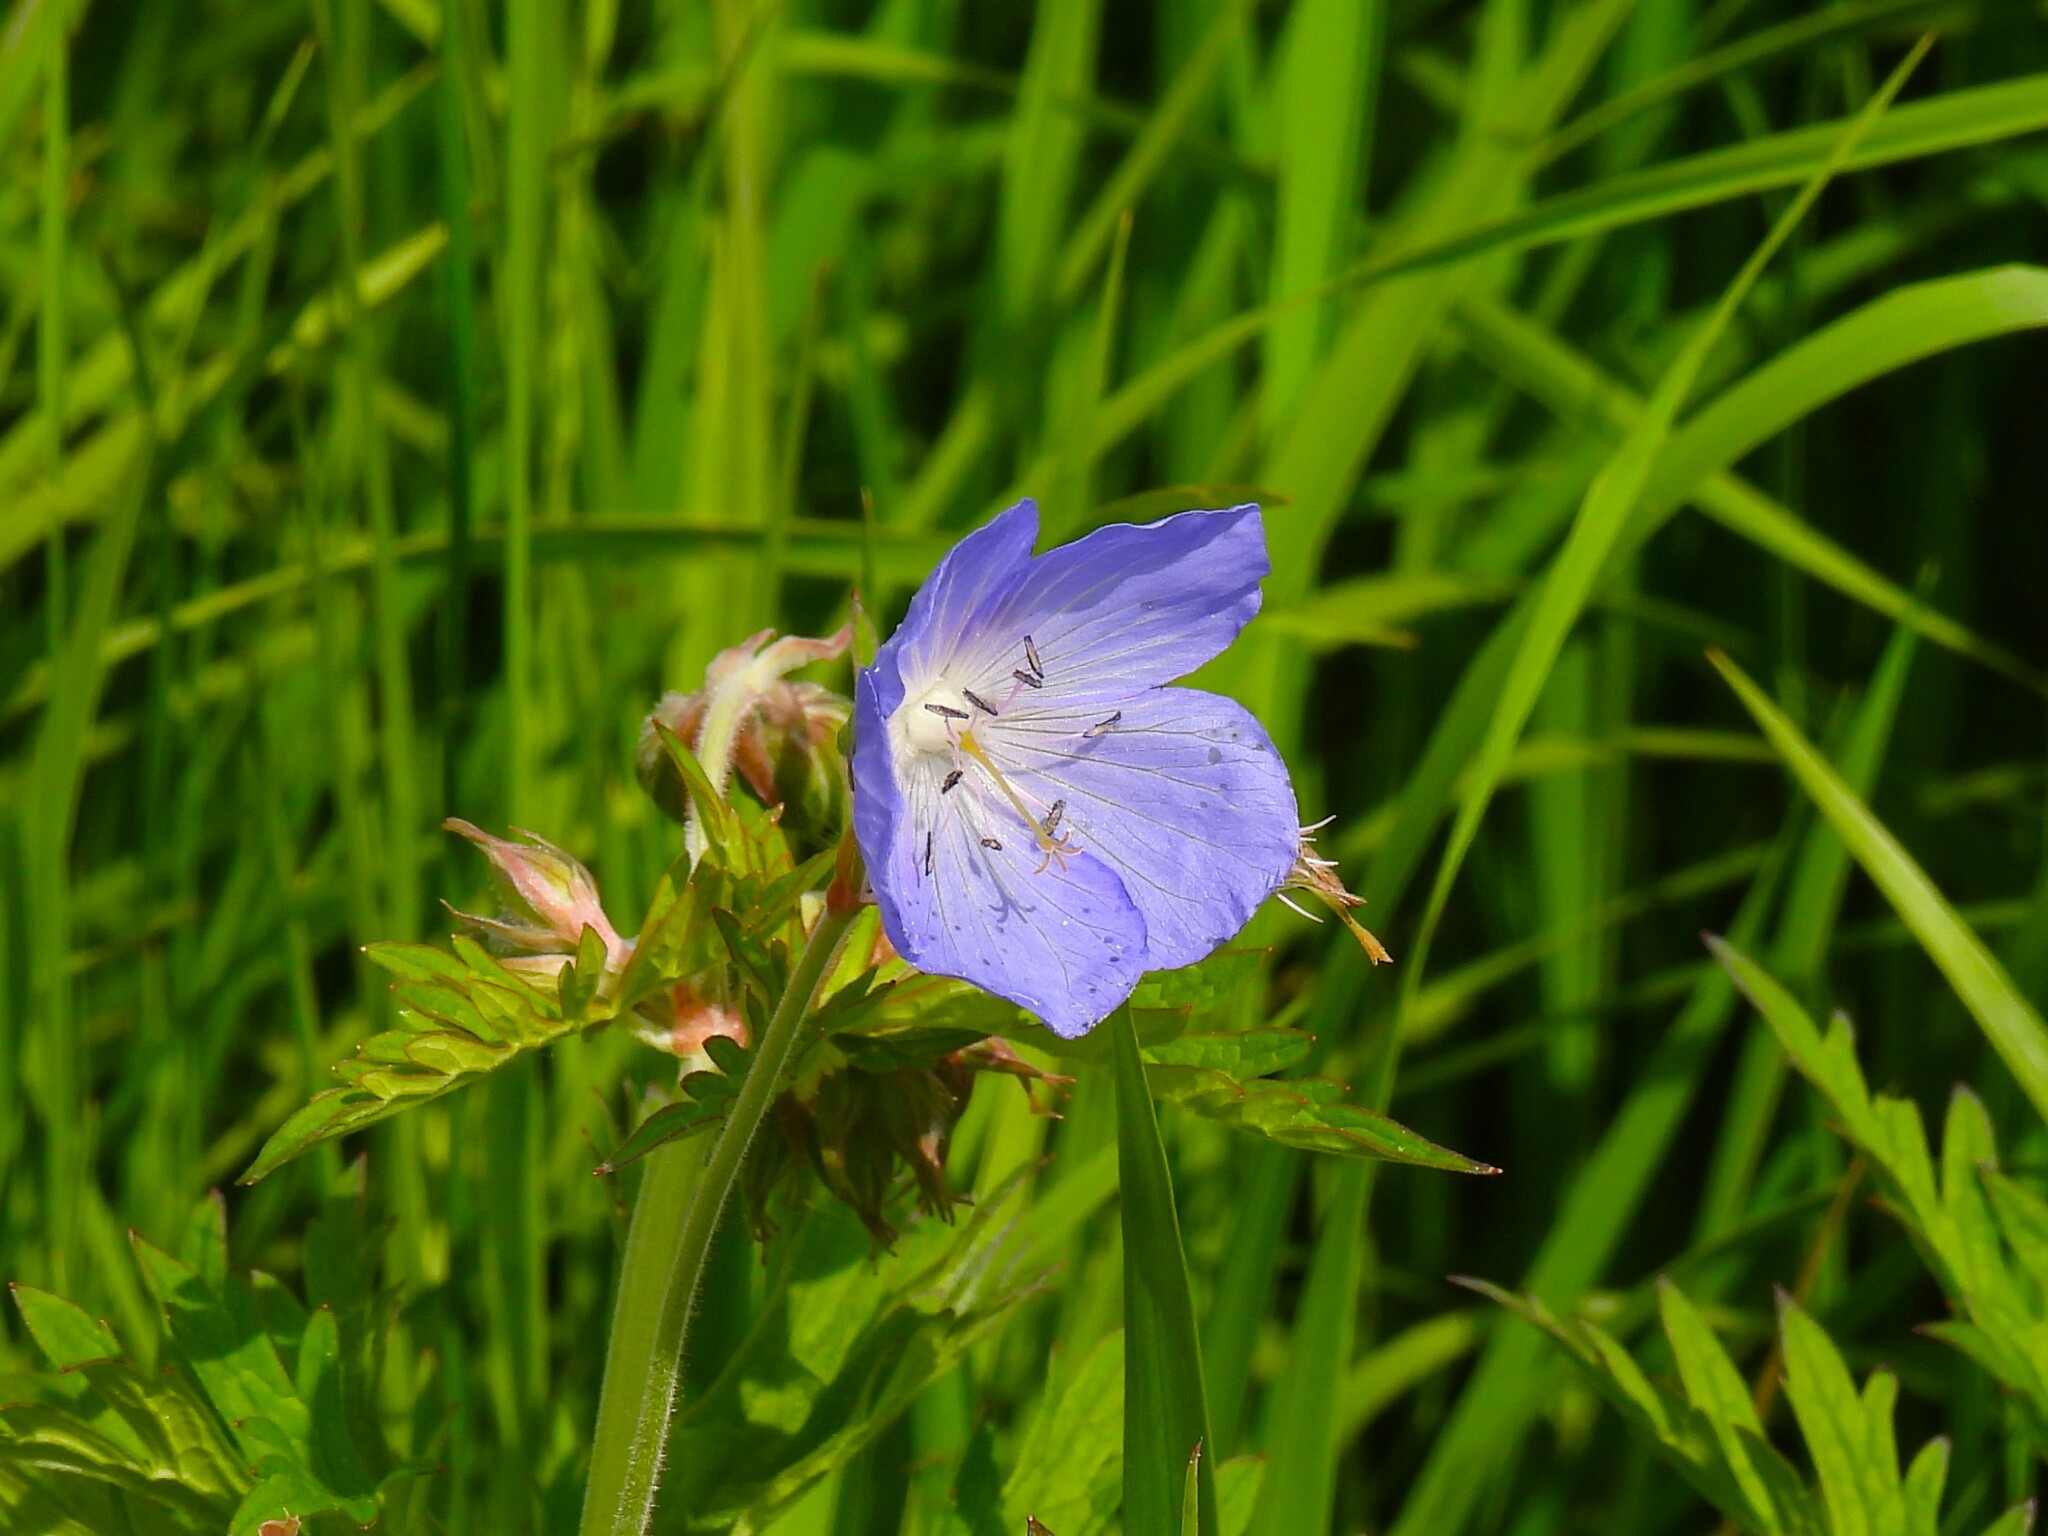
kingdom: Plantae
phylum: Tracheophyta
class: Magnoliopsida
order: Geraniales
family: Geraniaceae
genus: Geranium
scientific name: Geranium pratense
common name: Meadow crane's-bill
